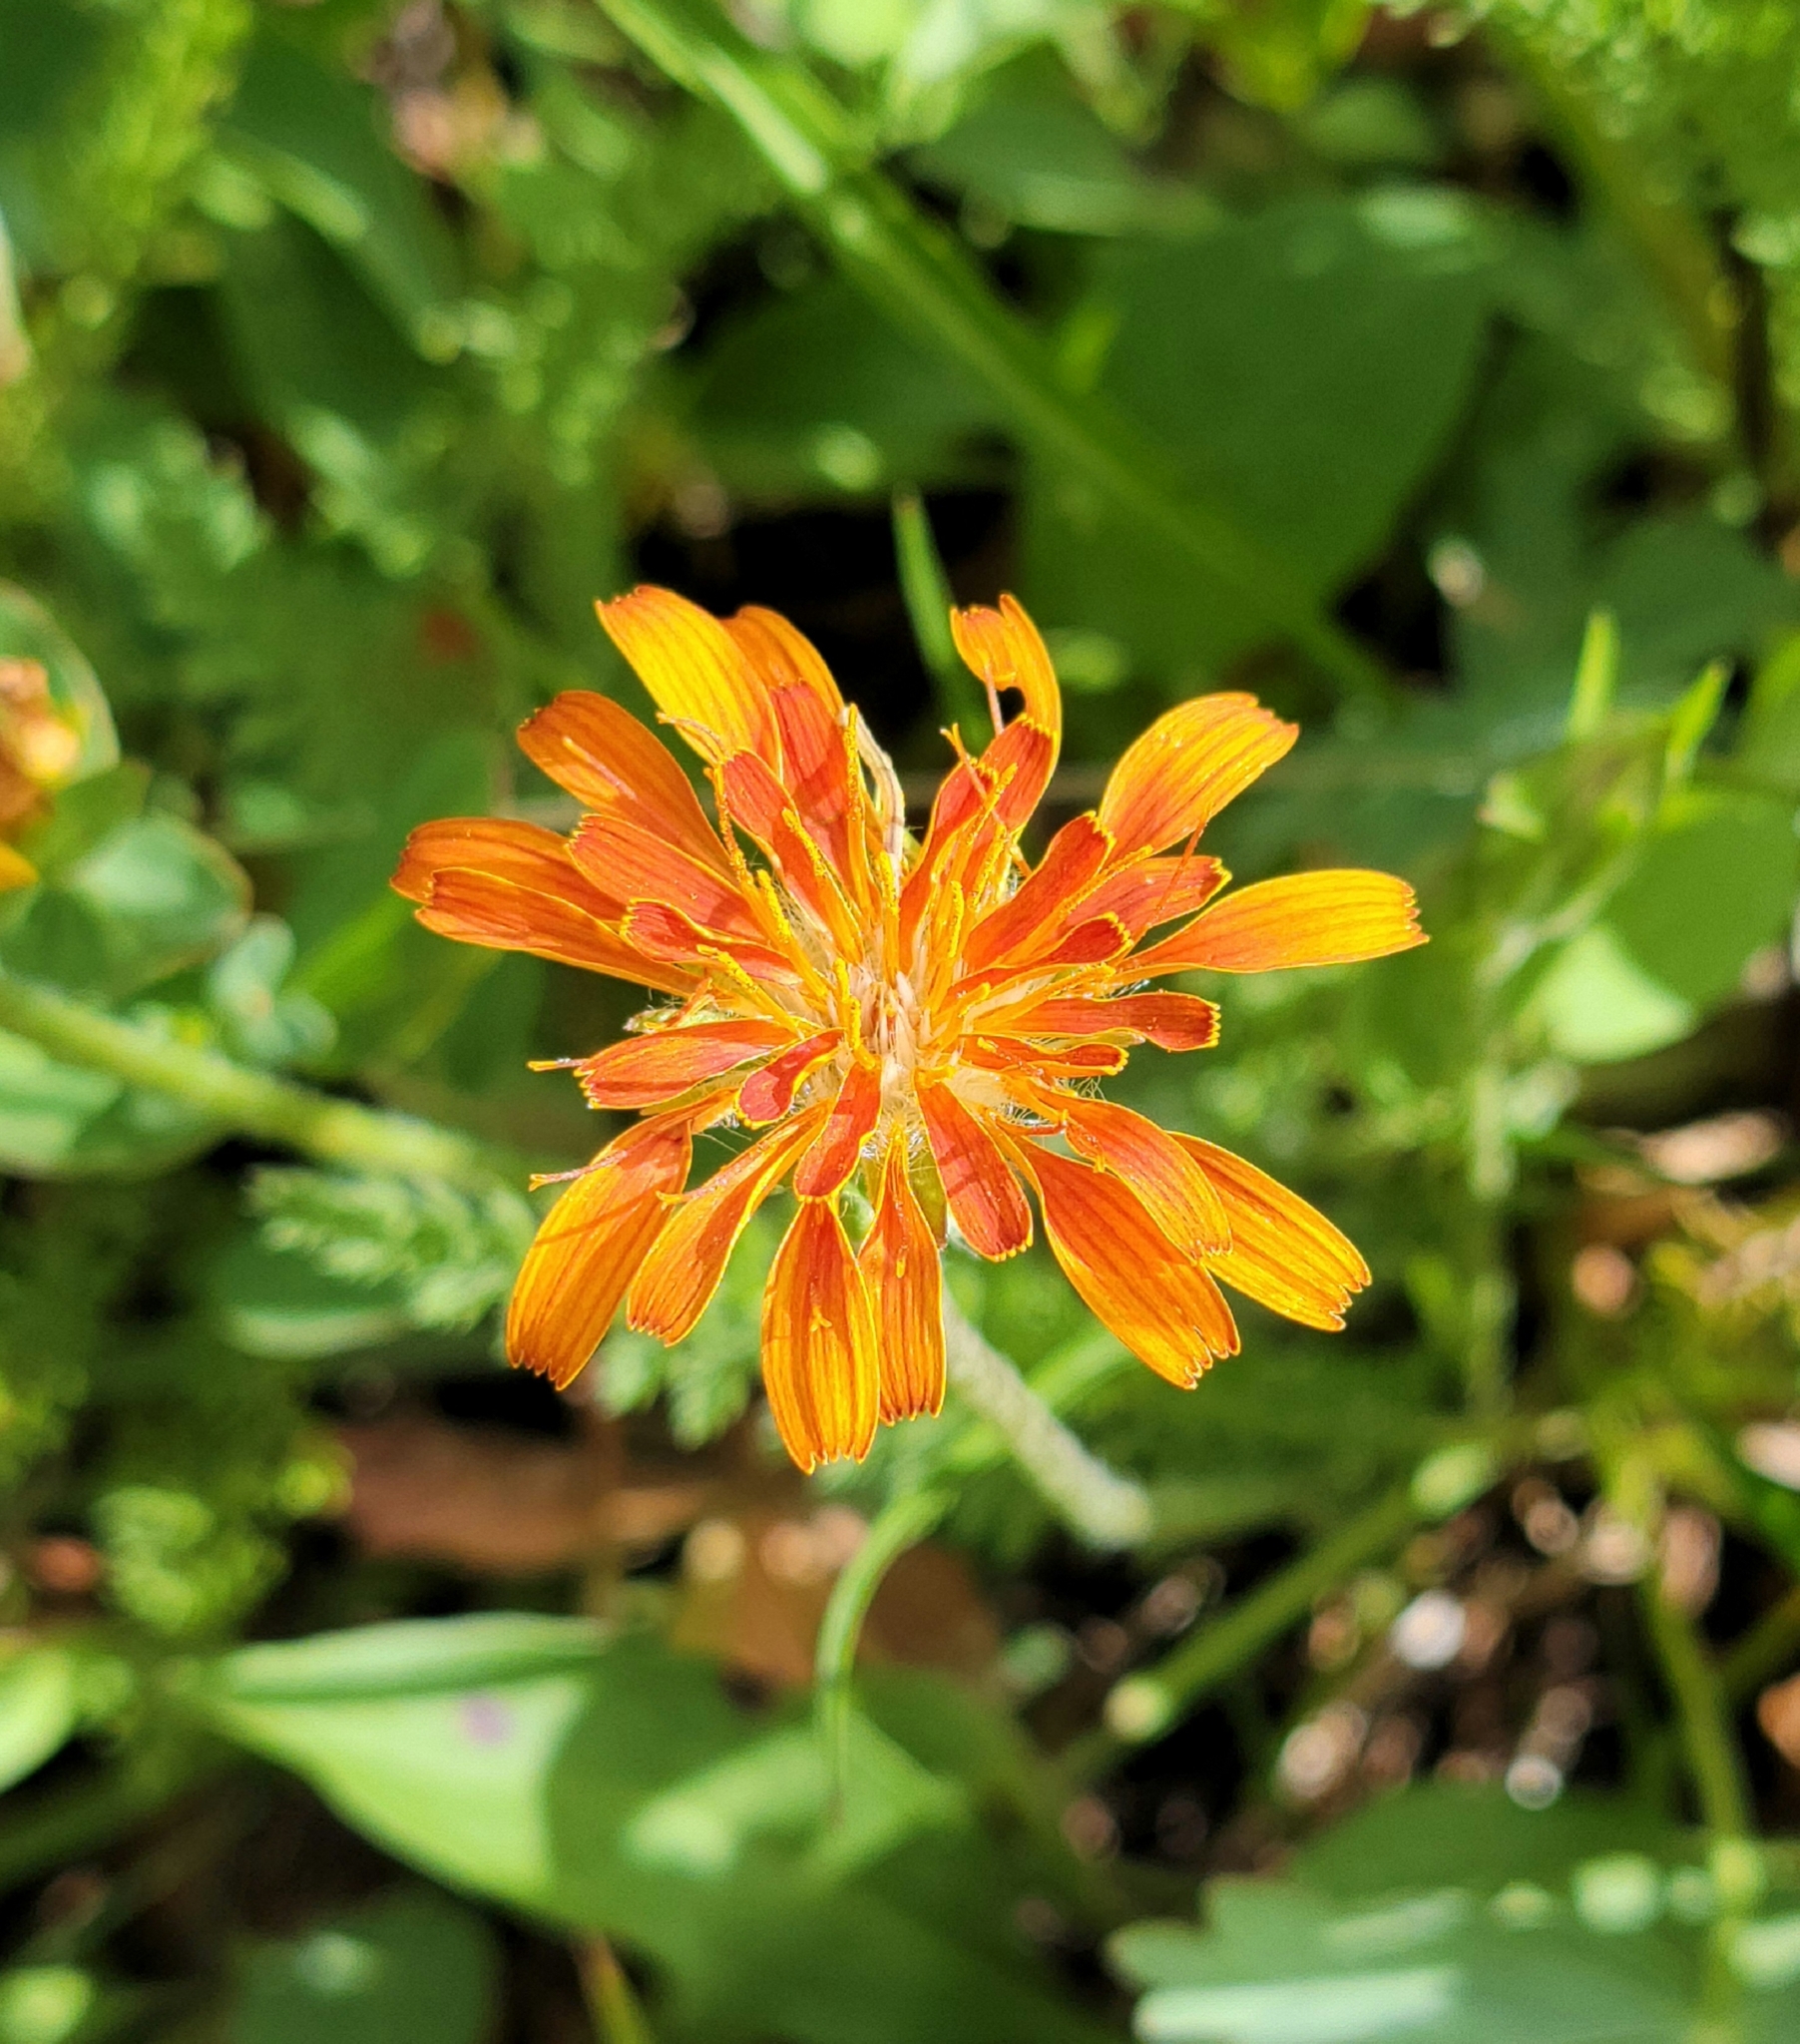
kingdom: Plantae
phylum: Tracheophyta
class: Magnoliopsida
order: Asterales
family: Asteraceae
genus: Agoseris
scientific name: Agoseris aurantiaca
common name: Mountain agoseris
